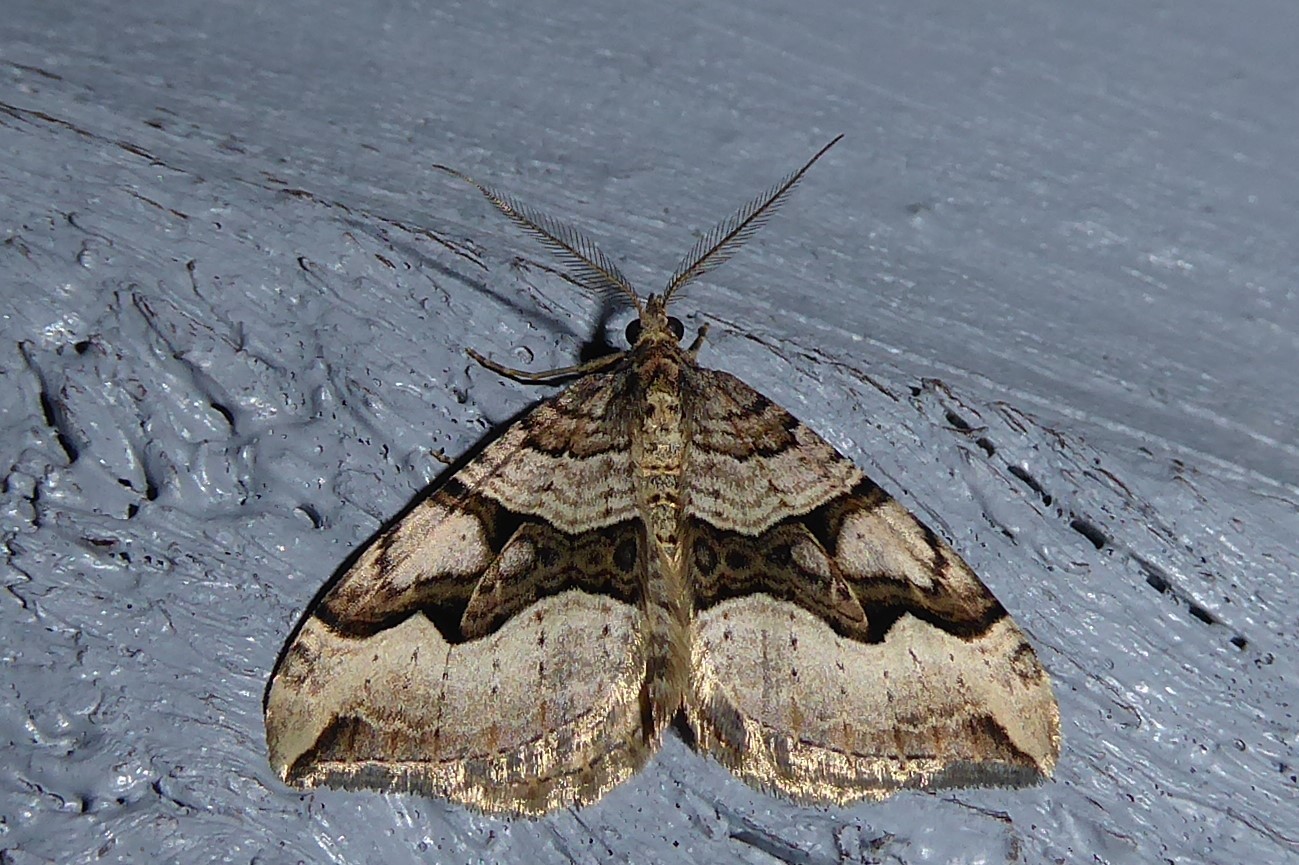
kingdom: Animalia
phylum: Arthropoda
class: Insecta
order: Lepidoptera
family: Geometridae
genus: Xanthorhoe
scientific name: Xanthorhoe semifissata
